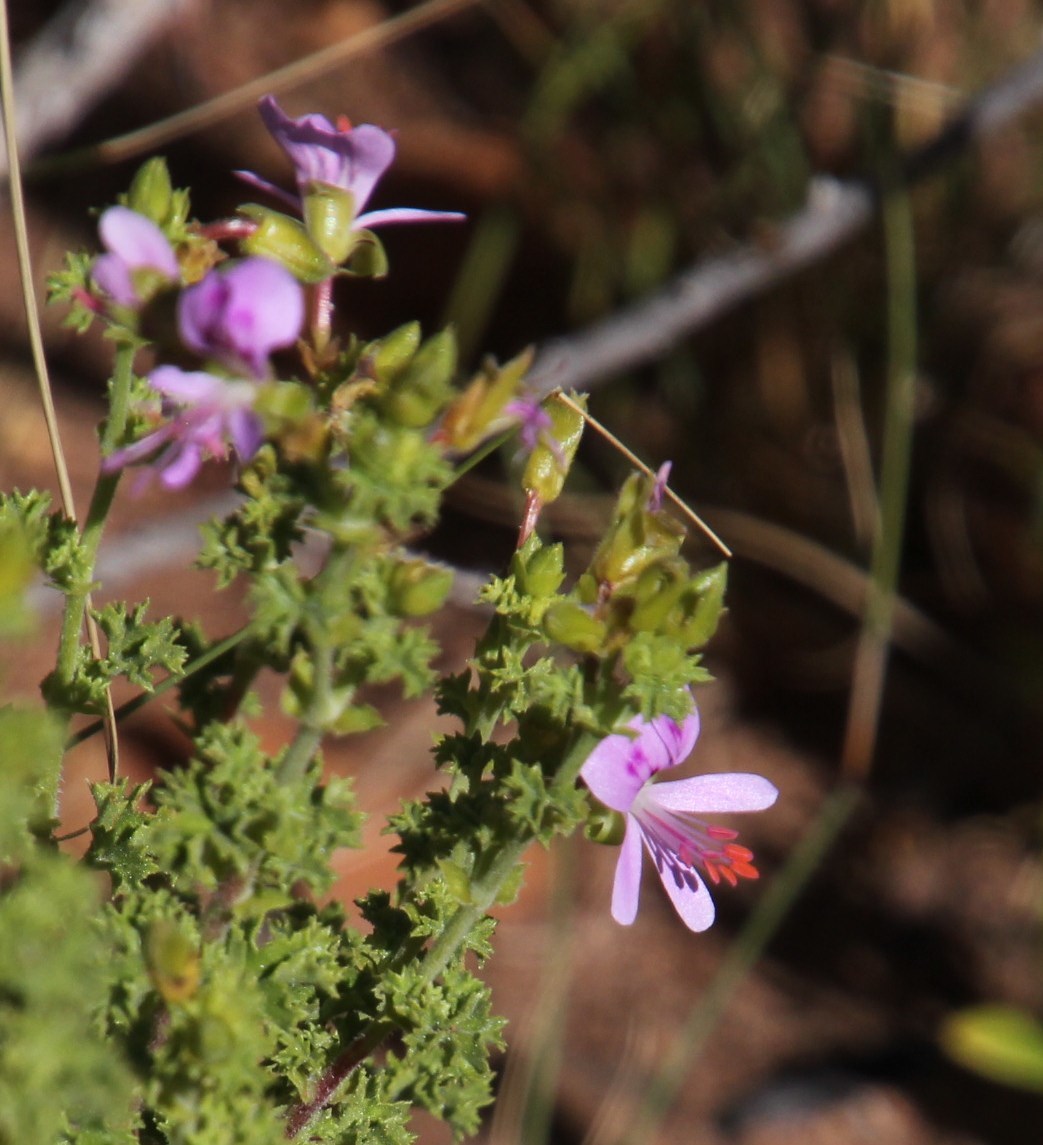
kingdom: Plantae
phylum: Tracheophyta
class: Magnoliopsida
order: Geraniales
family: Geraniaceae
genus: Pelargonium
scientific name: Pelargonium englerianum
